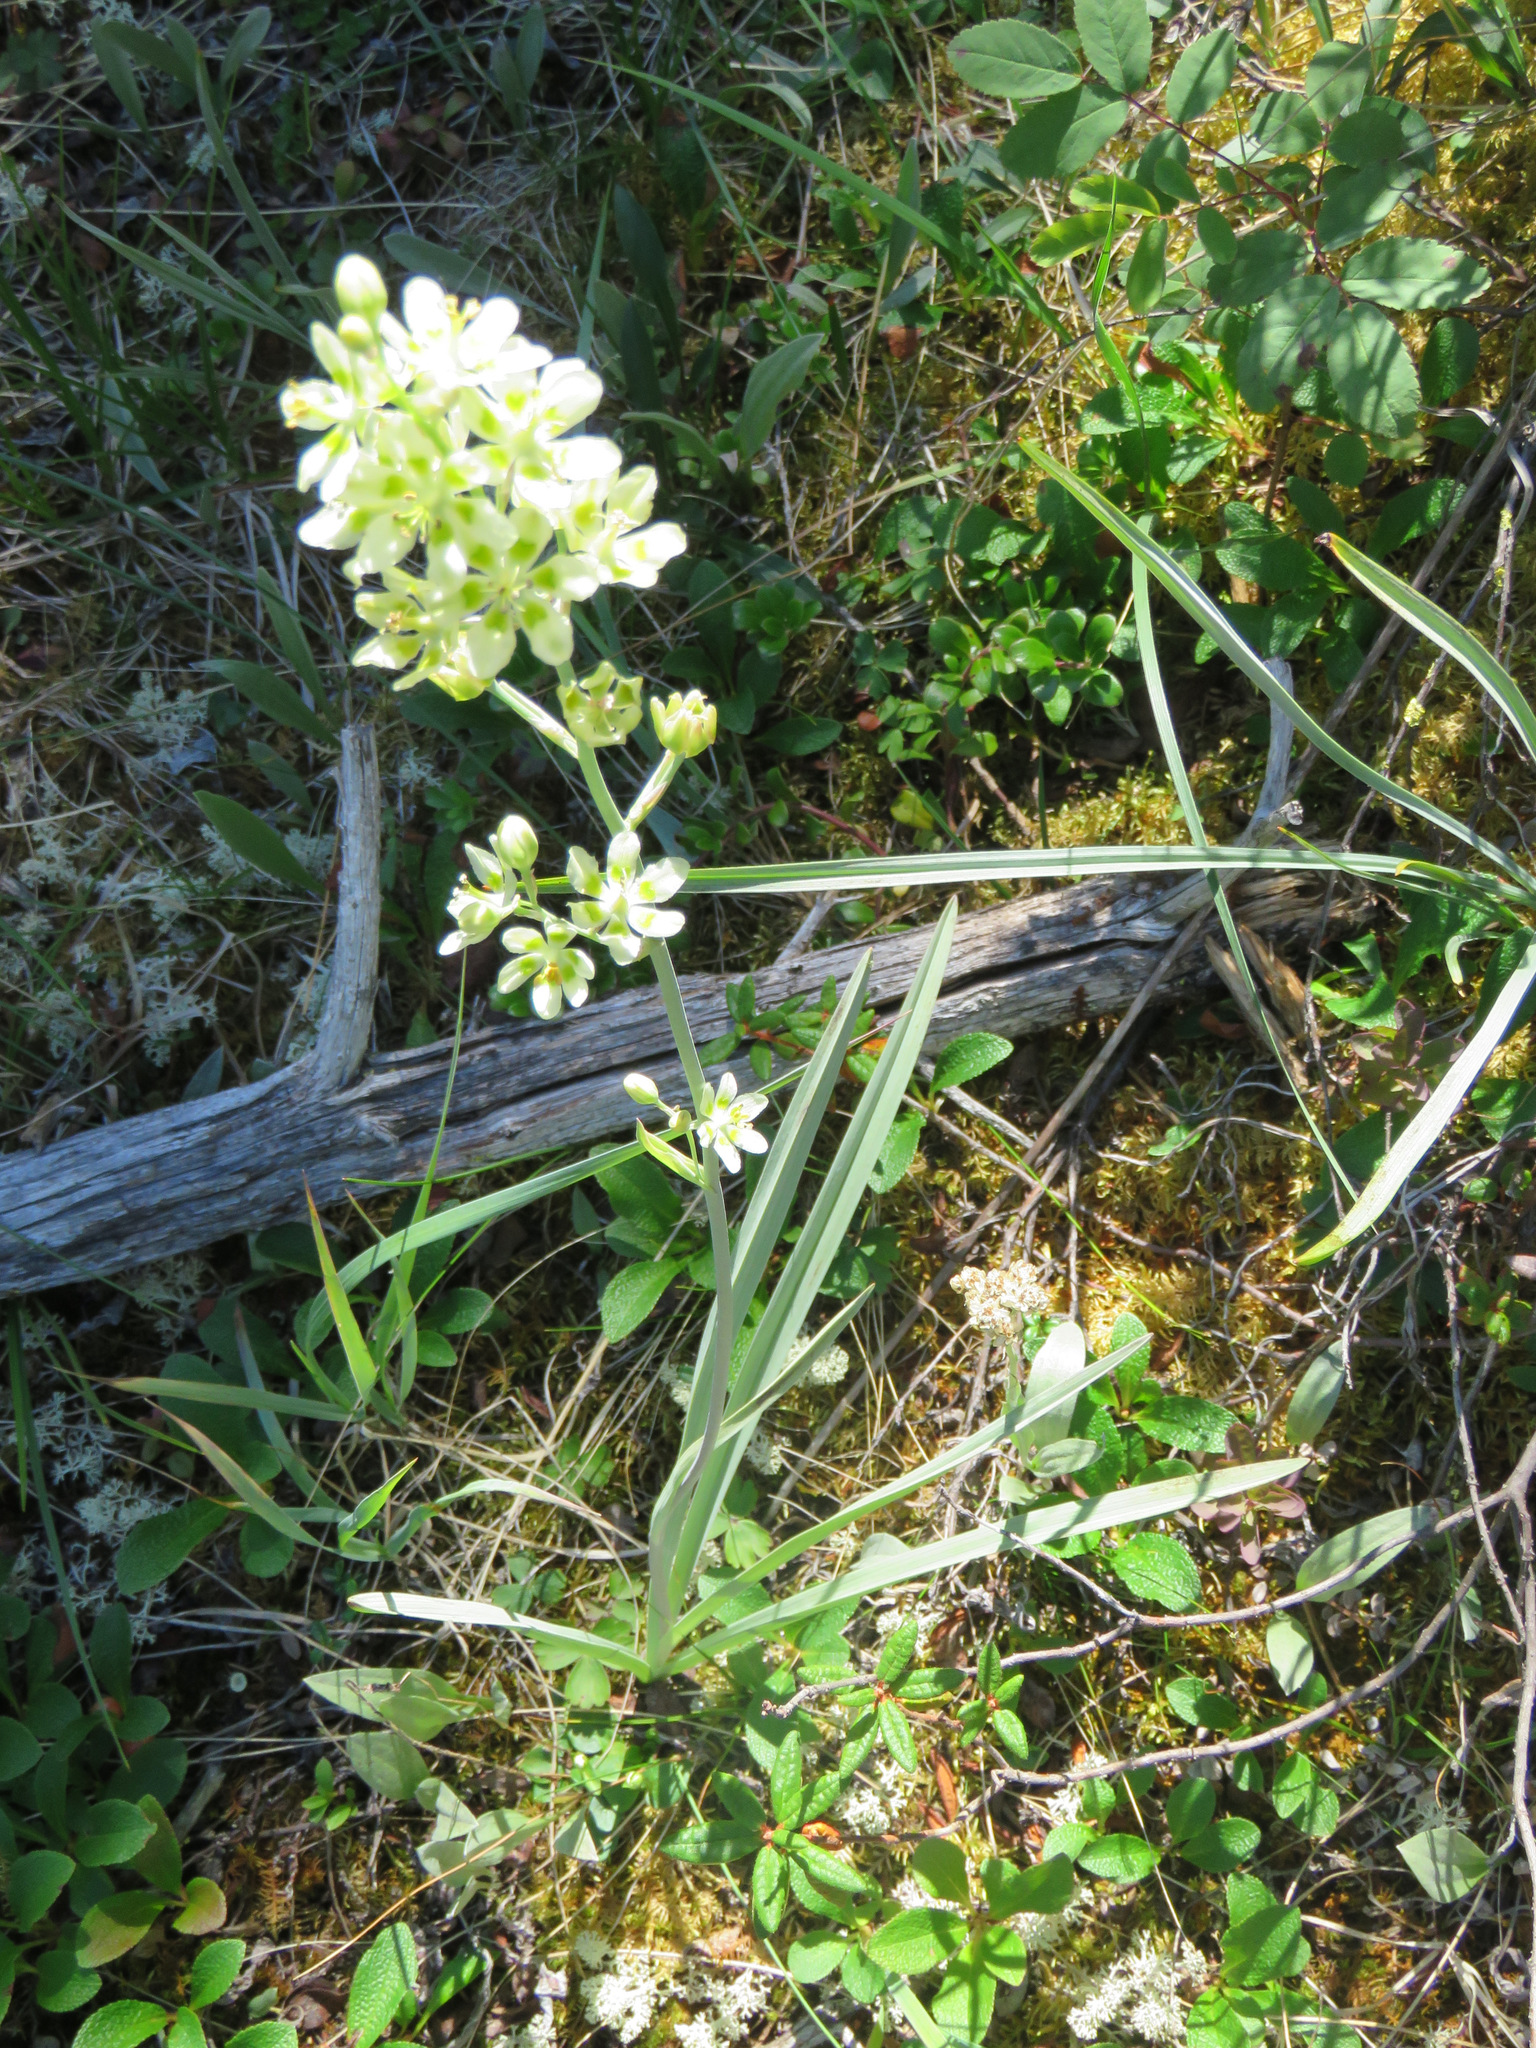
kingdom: Plantae
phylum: Tracheophyta
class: Liliopsida
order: Liliales
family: Melanthiaceae
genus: Anticlea
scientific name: Anticlea elegans
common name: Mountain death camas
